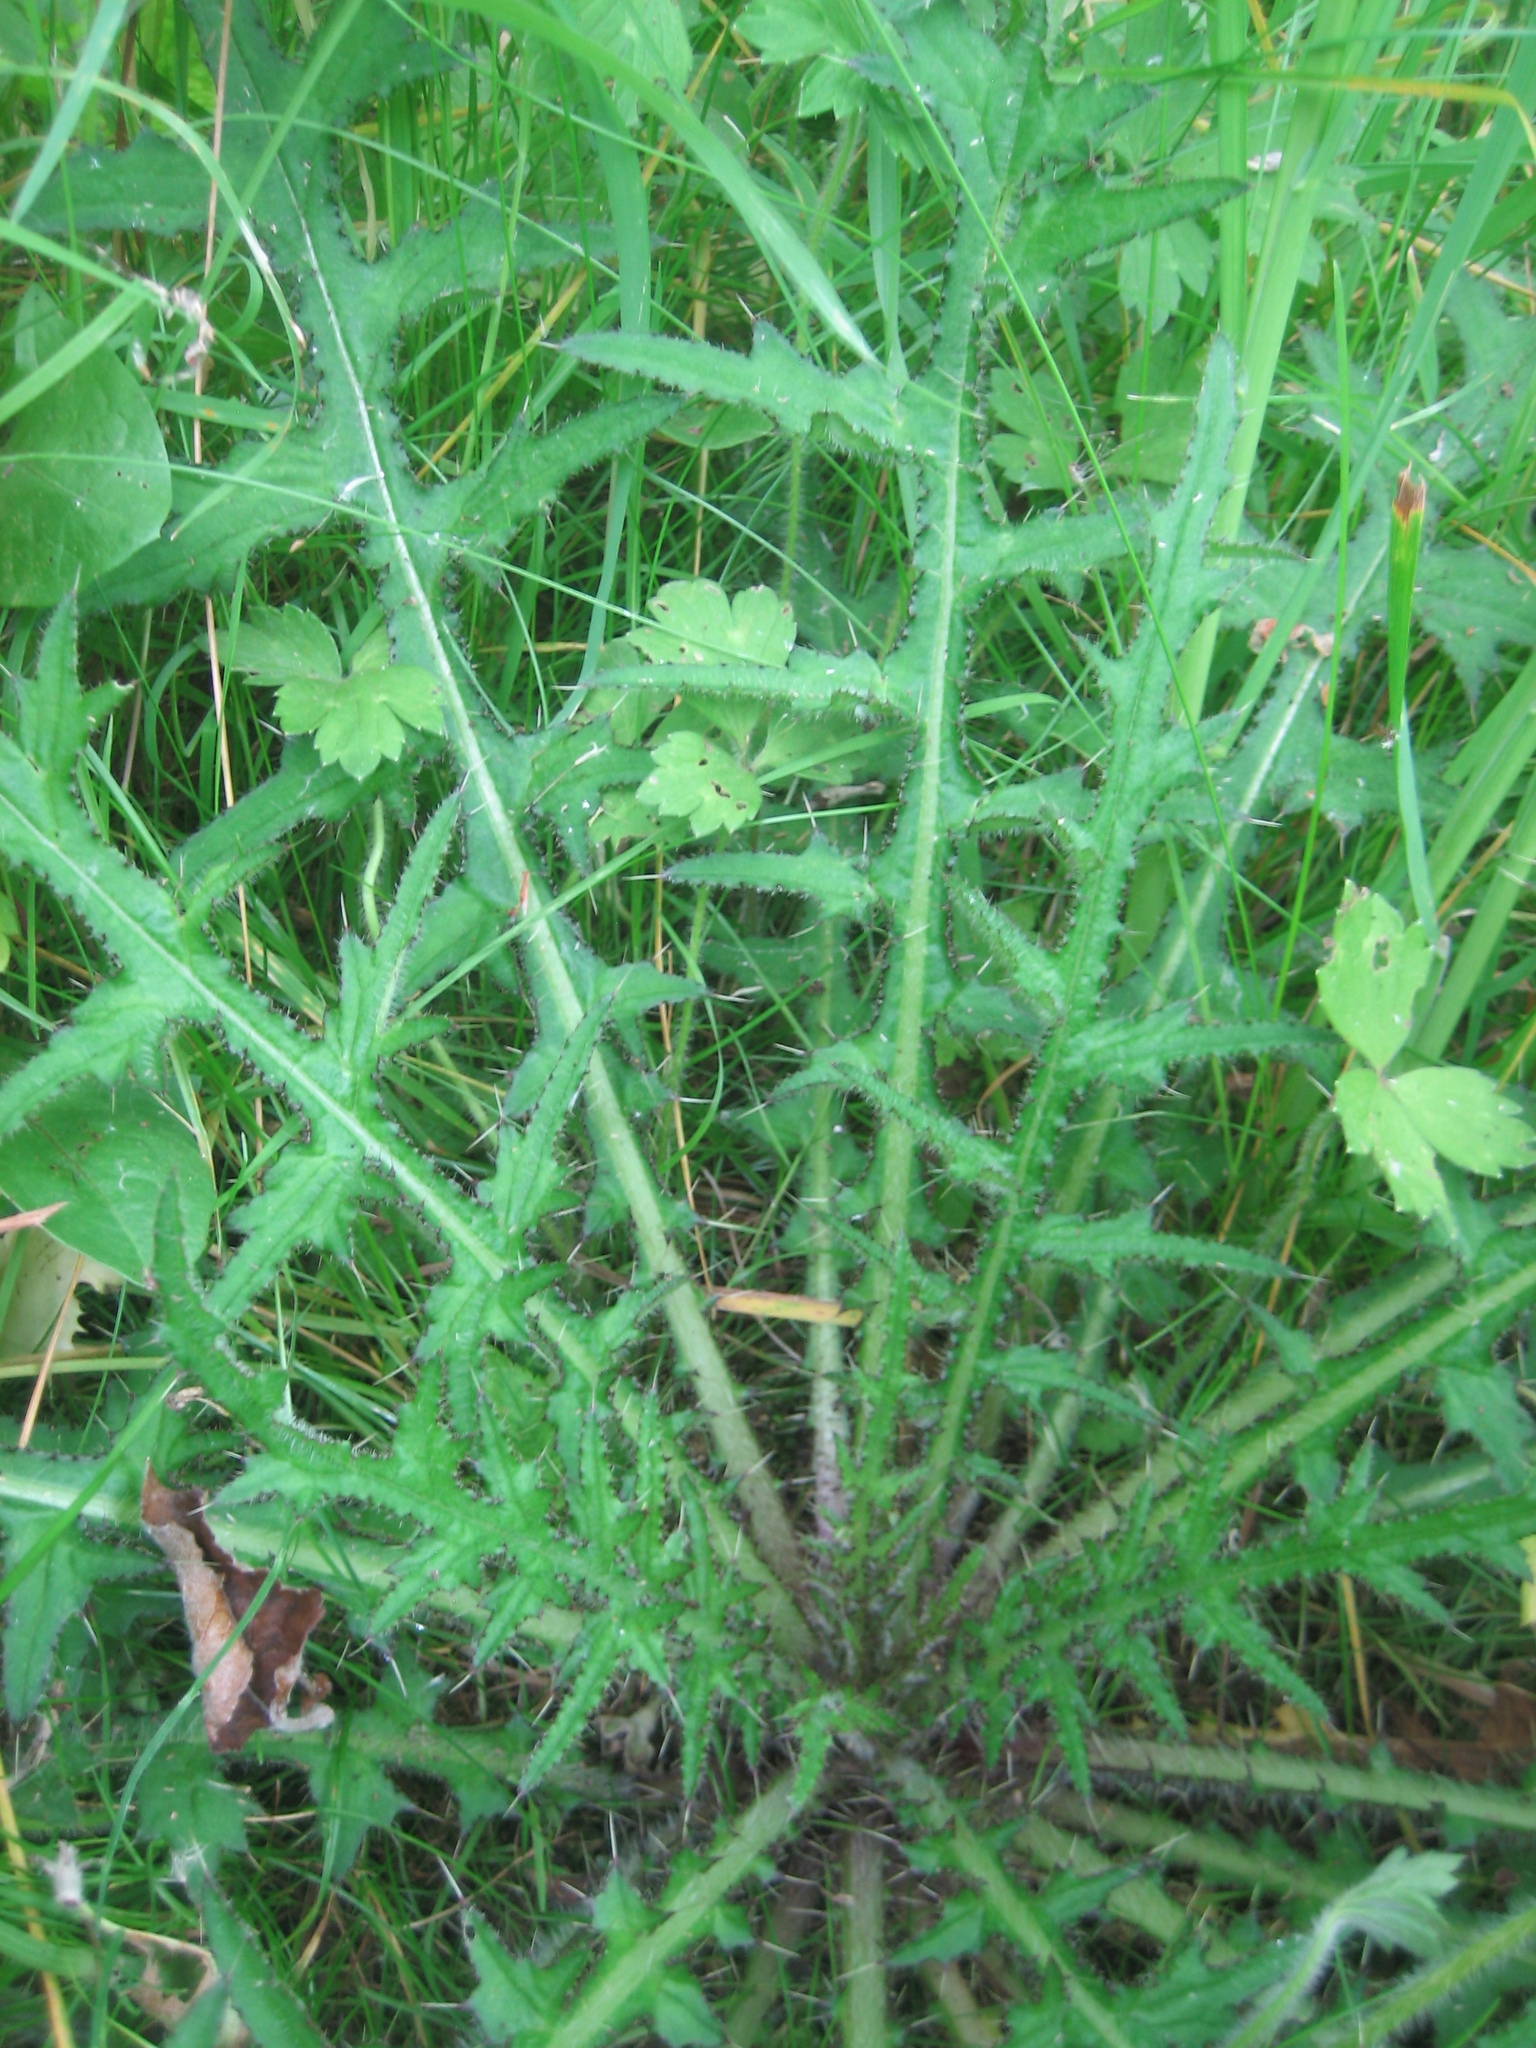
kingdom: Plantae
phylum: Tracheophyta
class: Magnoliopsida
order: Asterales
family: Asteraceae
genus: Cirsium
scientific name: Cirsium palustre
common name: Marsh thistle
